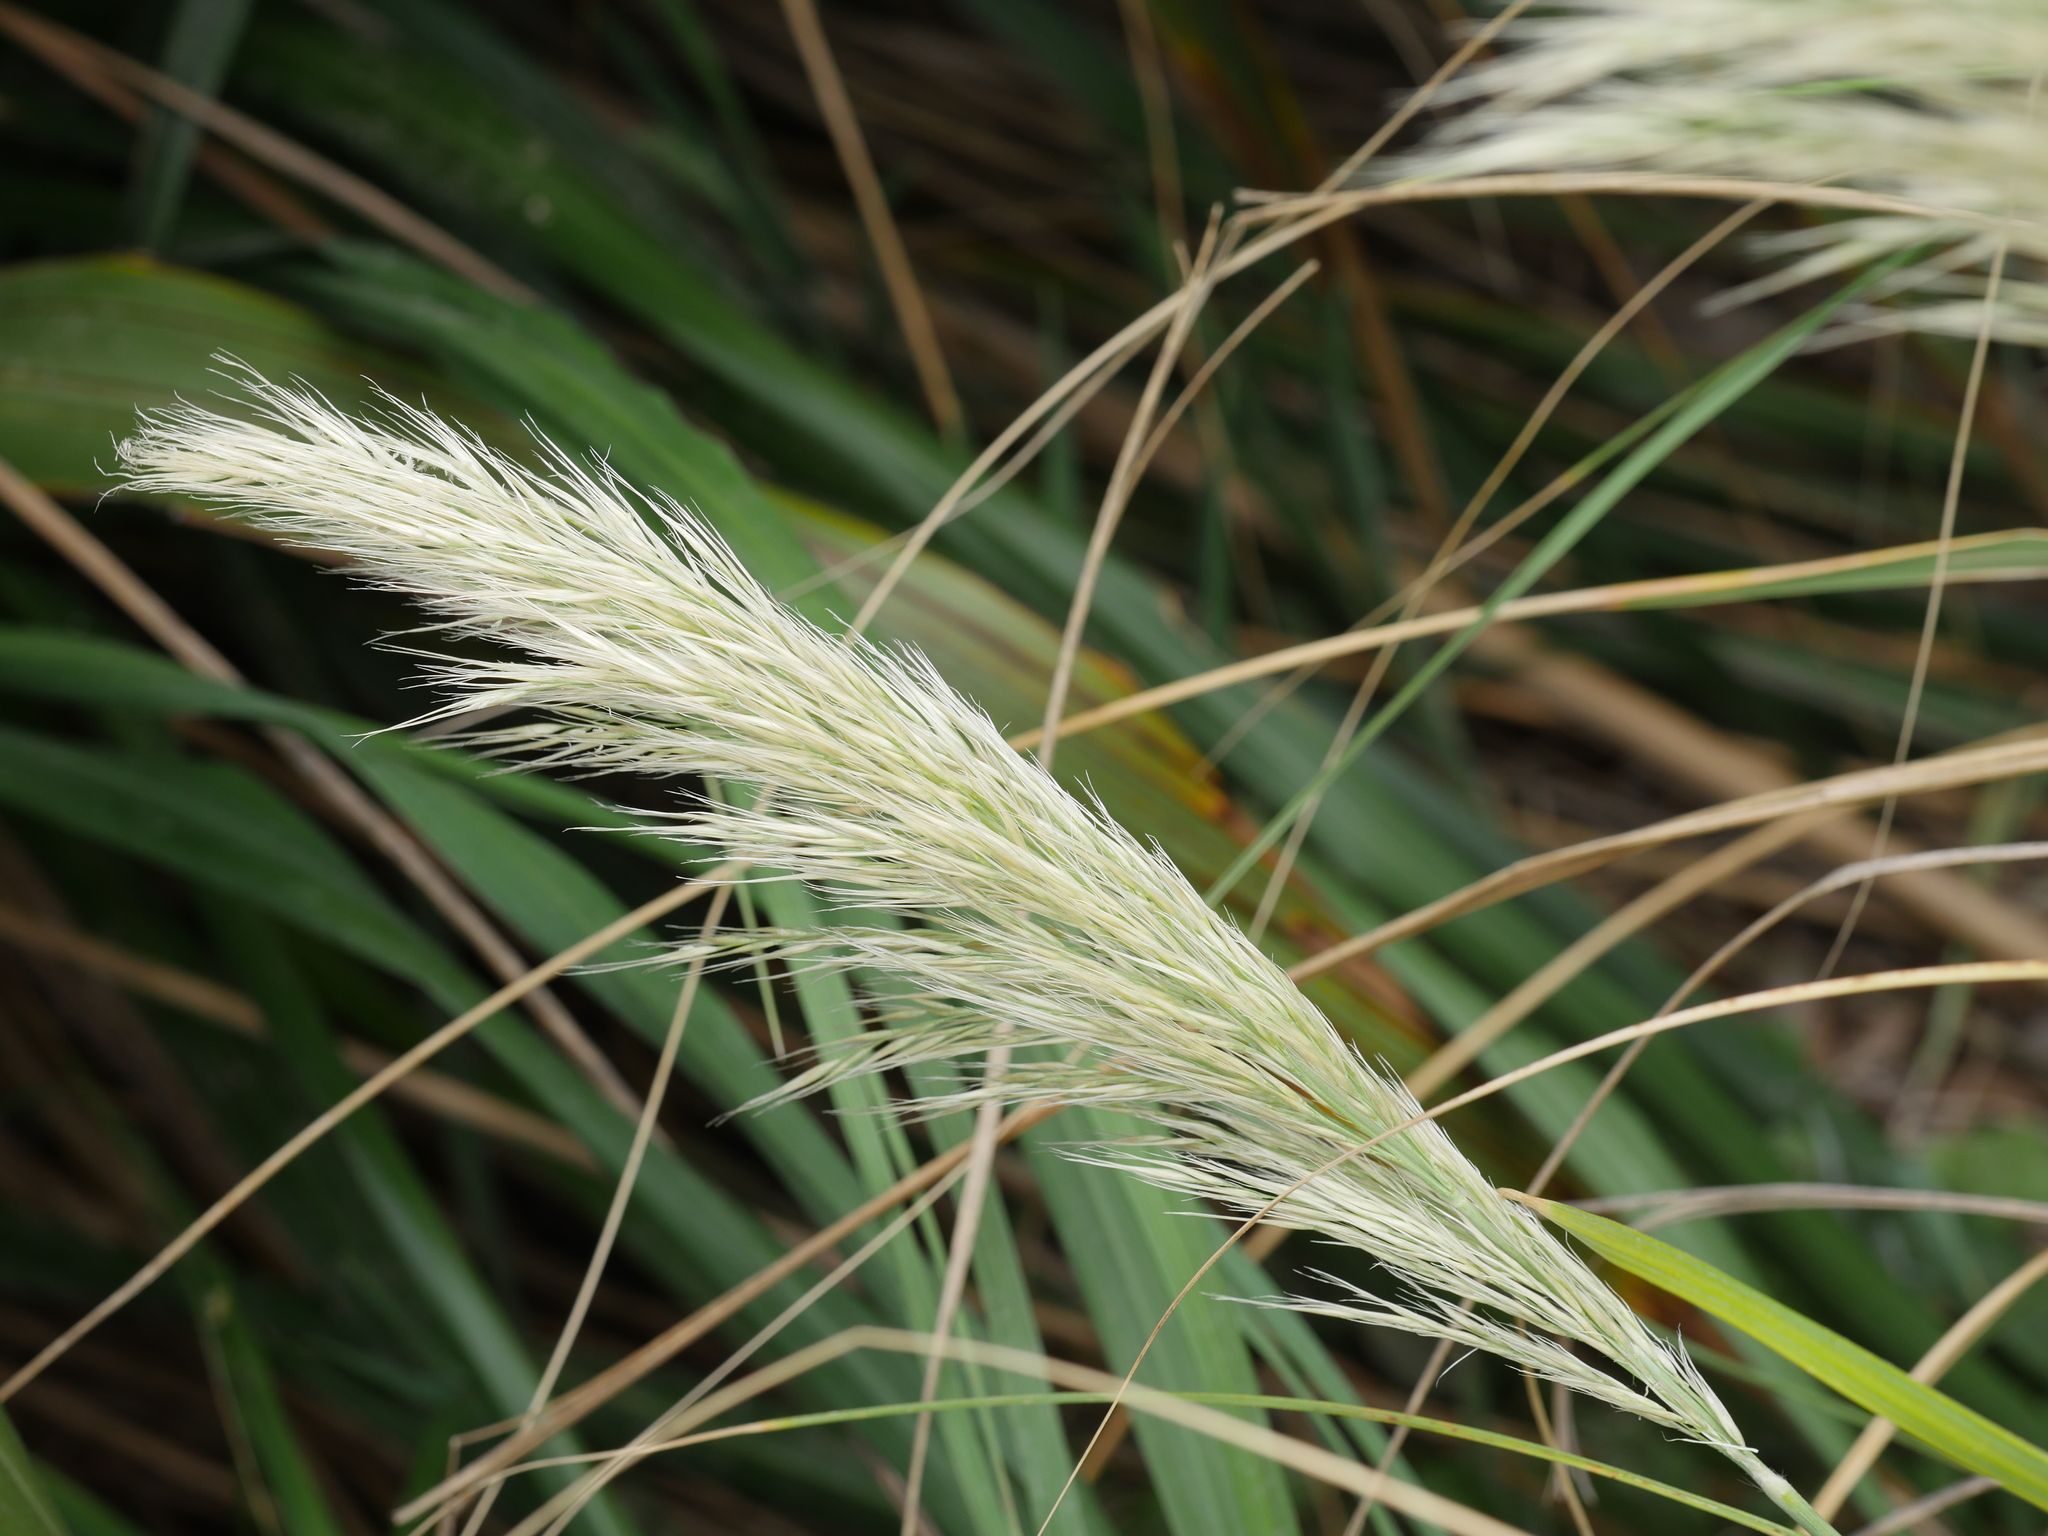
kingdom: Plantae
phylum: Tracheophyta
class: Liliopsida
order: Poales
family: Poaceae
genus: Austroderia
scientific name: Austroderia splendens
